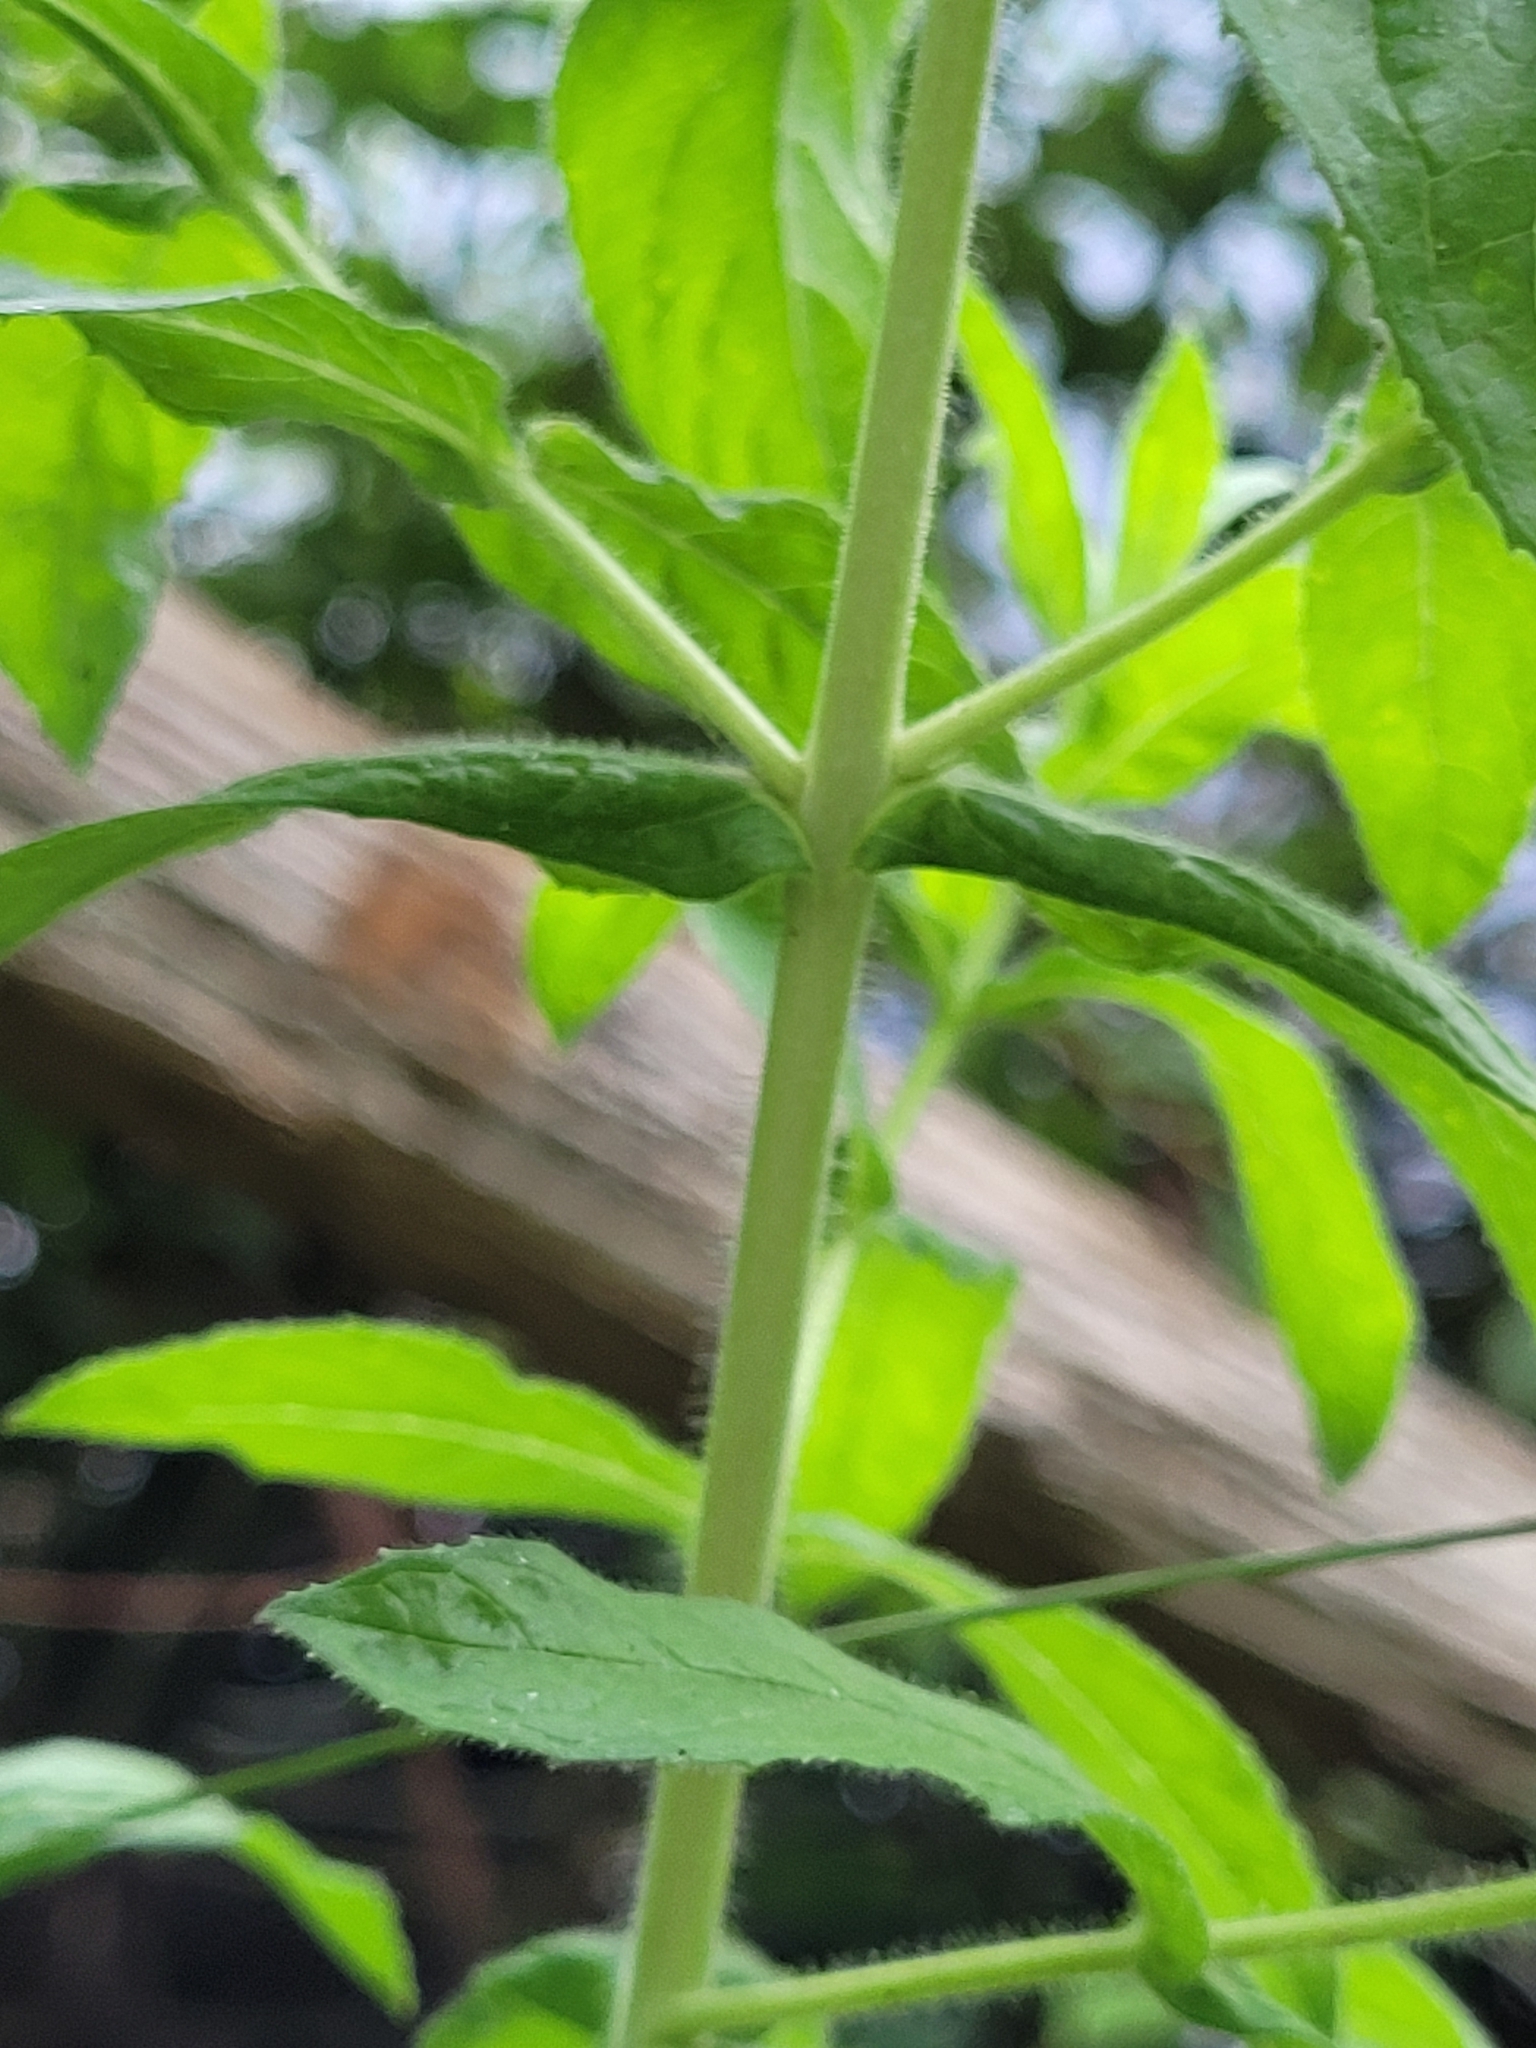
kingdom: Plantae
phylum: Tracheophyta
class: Magnoliopsida
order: Myrtales
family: Onagraceae
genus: Epilobium
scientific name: Epilobium hirsutum
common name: Great willowherb
